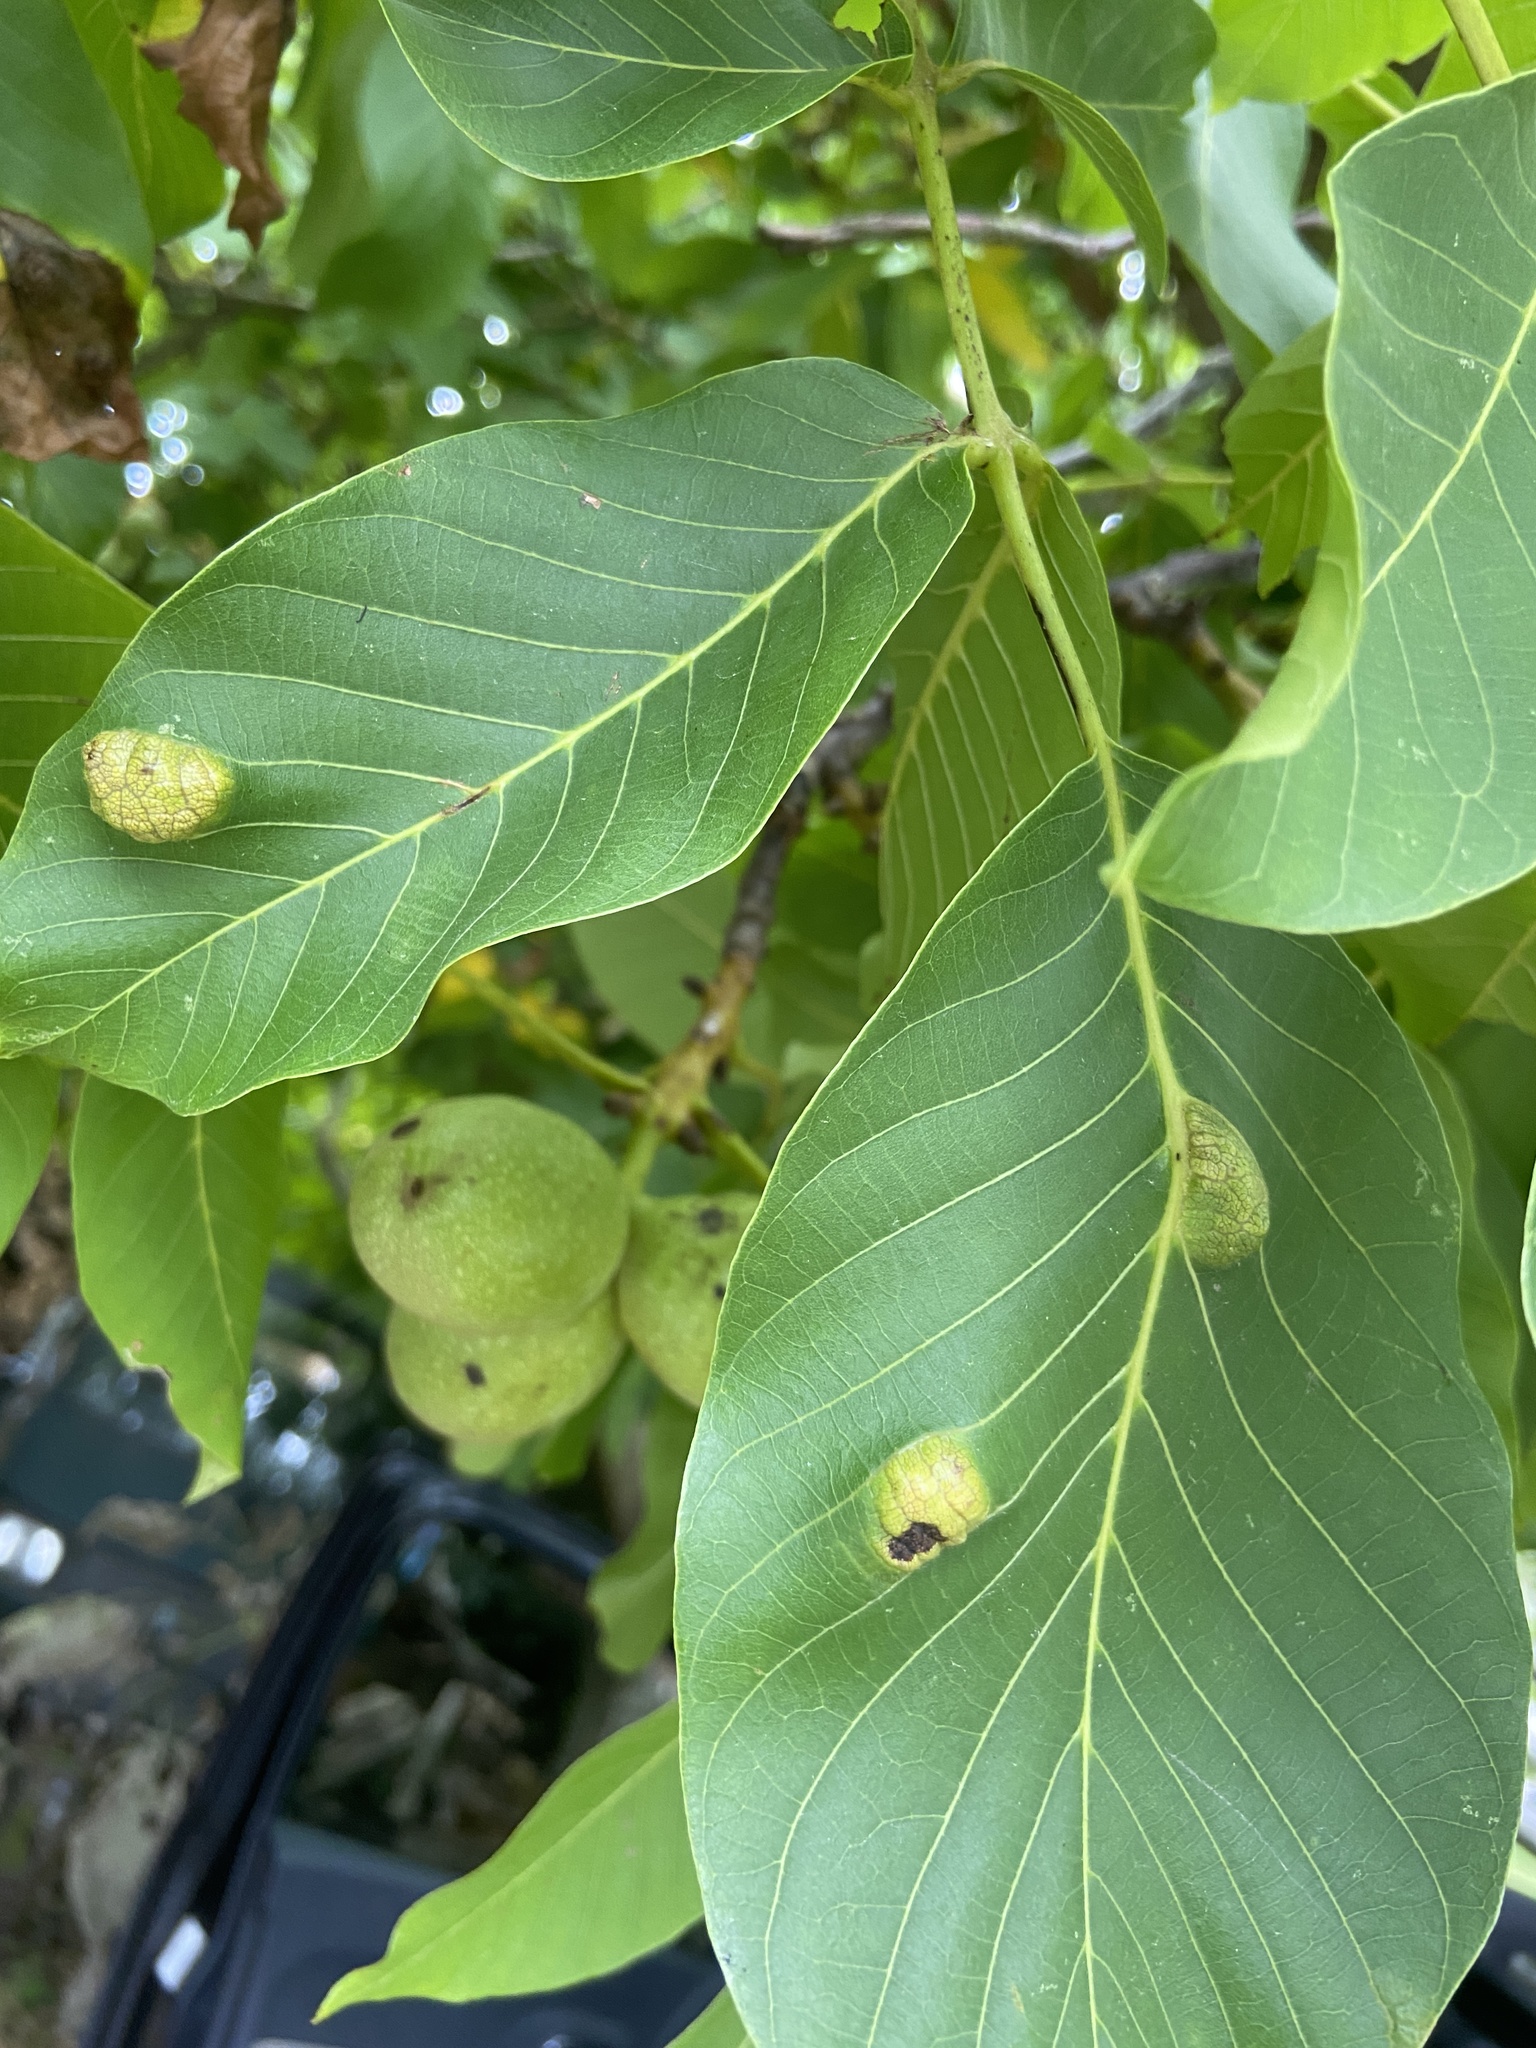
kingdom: Animalia
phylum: Arthropoda
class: Arachnida
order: Trombidiformes
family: Eriophyidae
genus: Aceria
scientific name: Aceria erinea
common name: Persian walnut erineum mite
